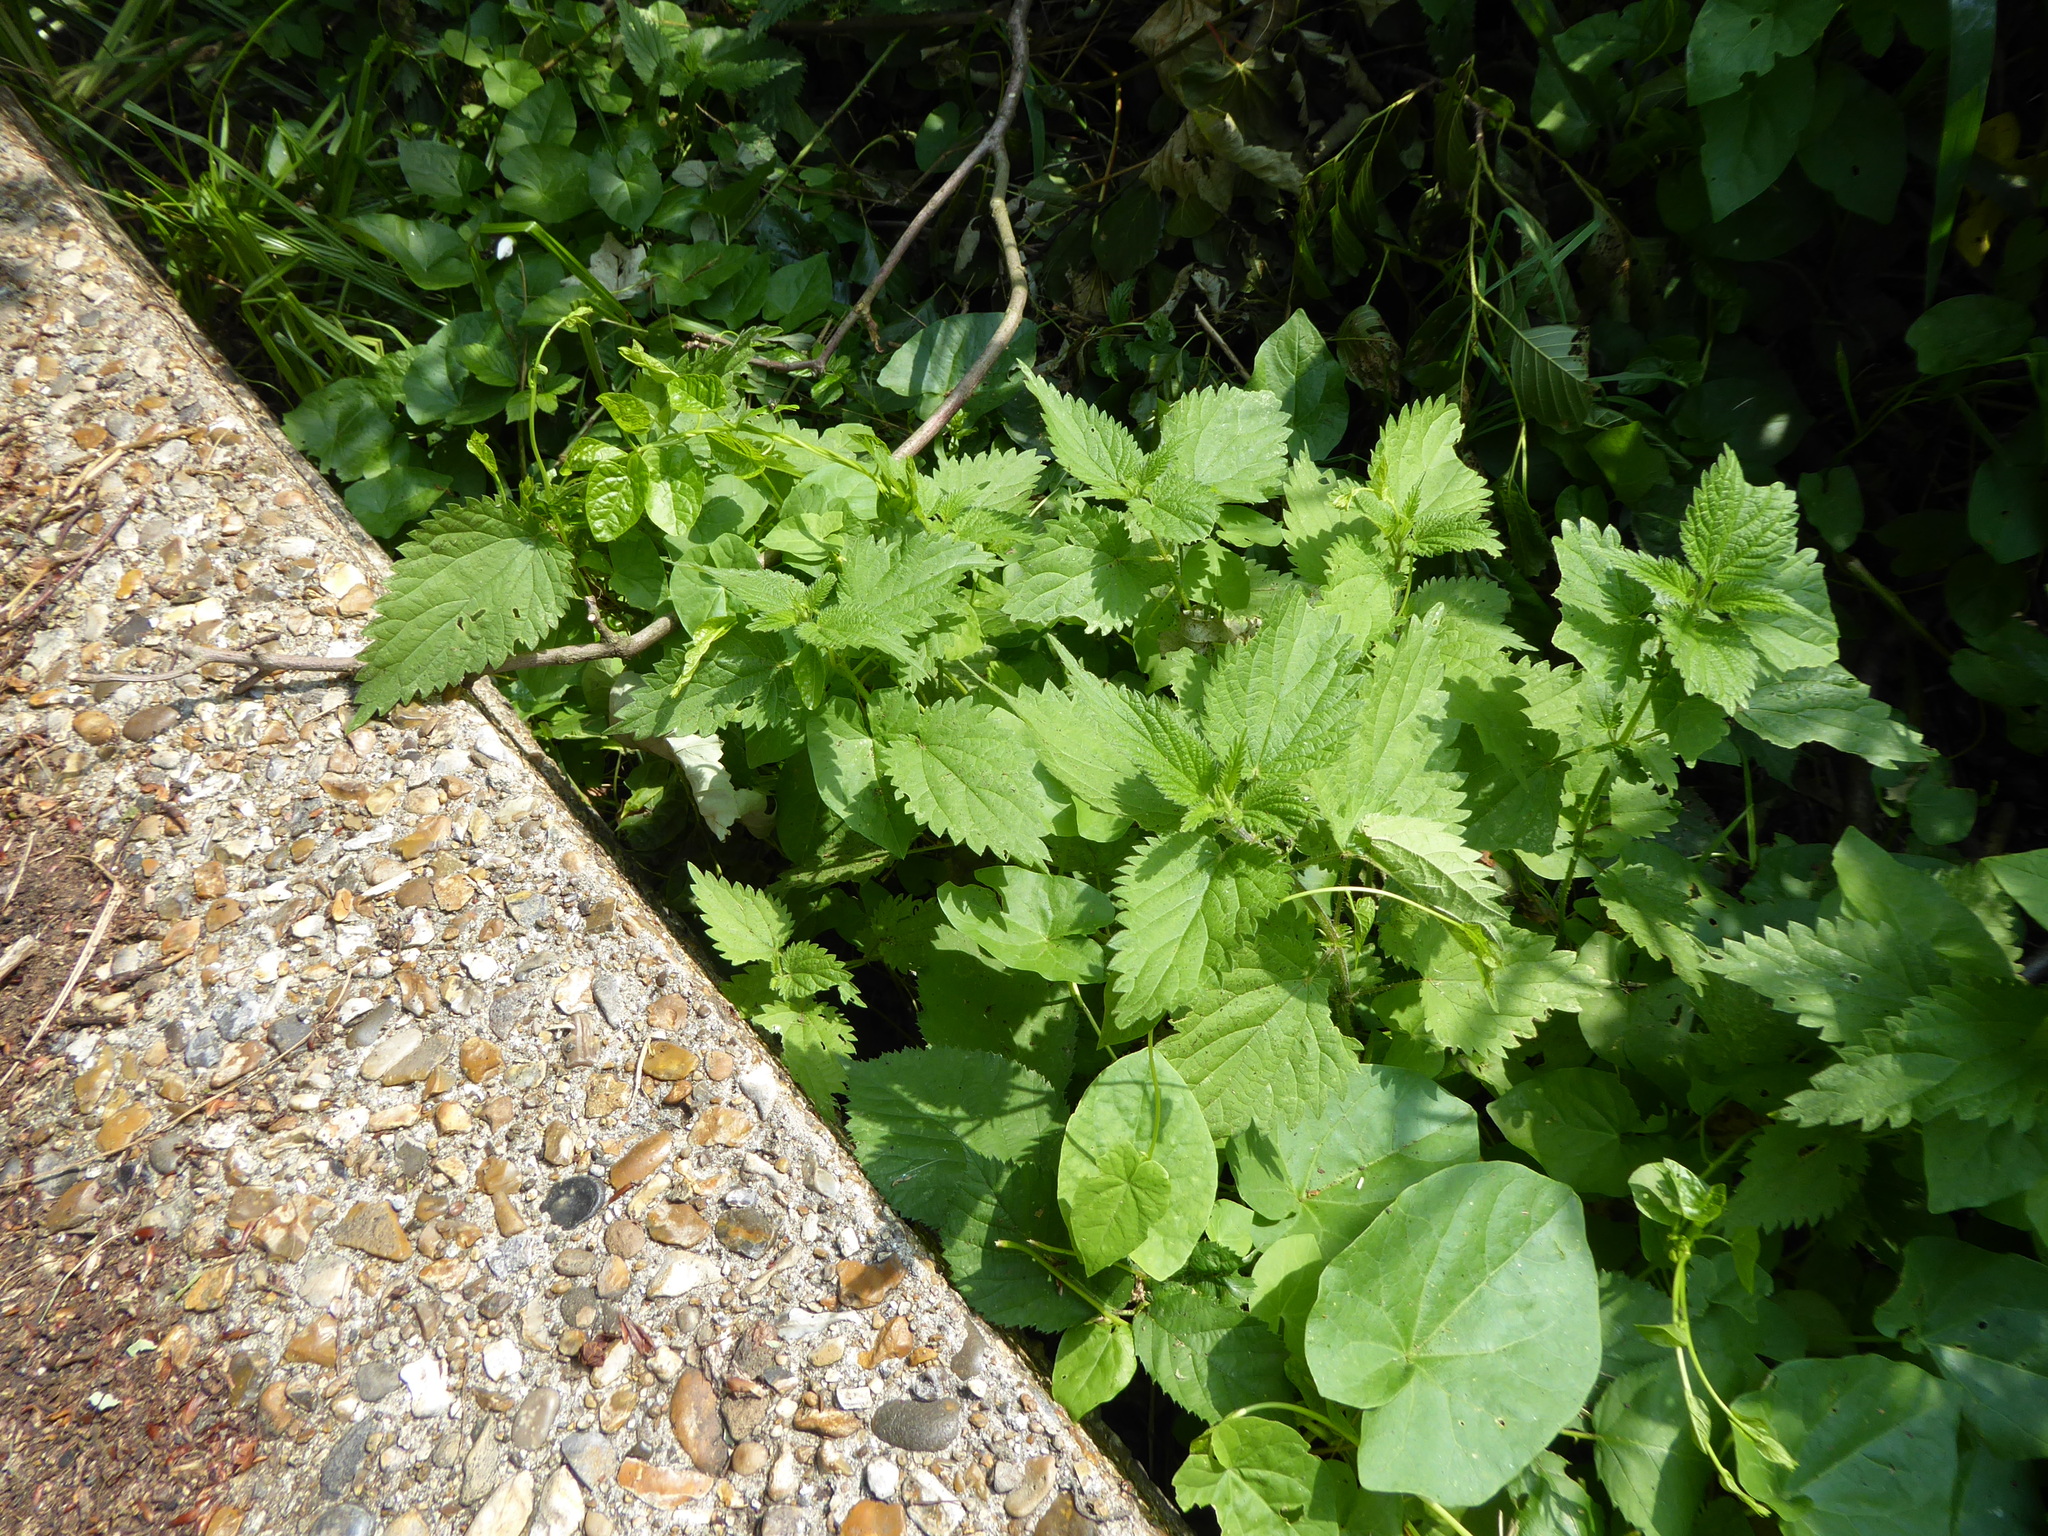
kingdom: Plantae
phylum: Tracheophyta
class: Magnoliopsida
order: Rosales
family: Urticaceae
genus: Urtica
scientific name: Urtica dioica
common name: Common nettle
